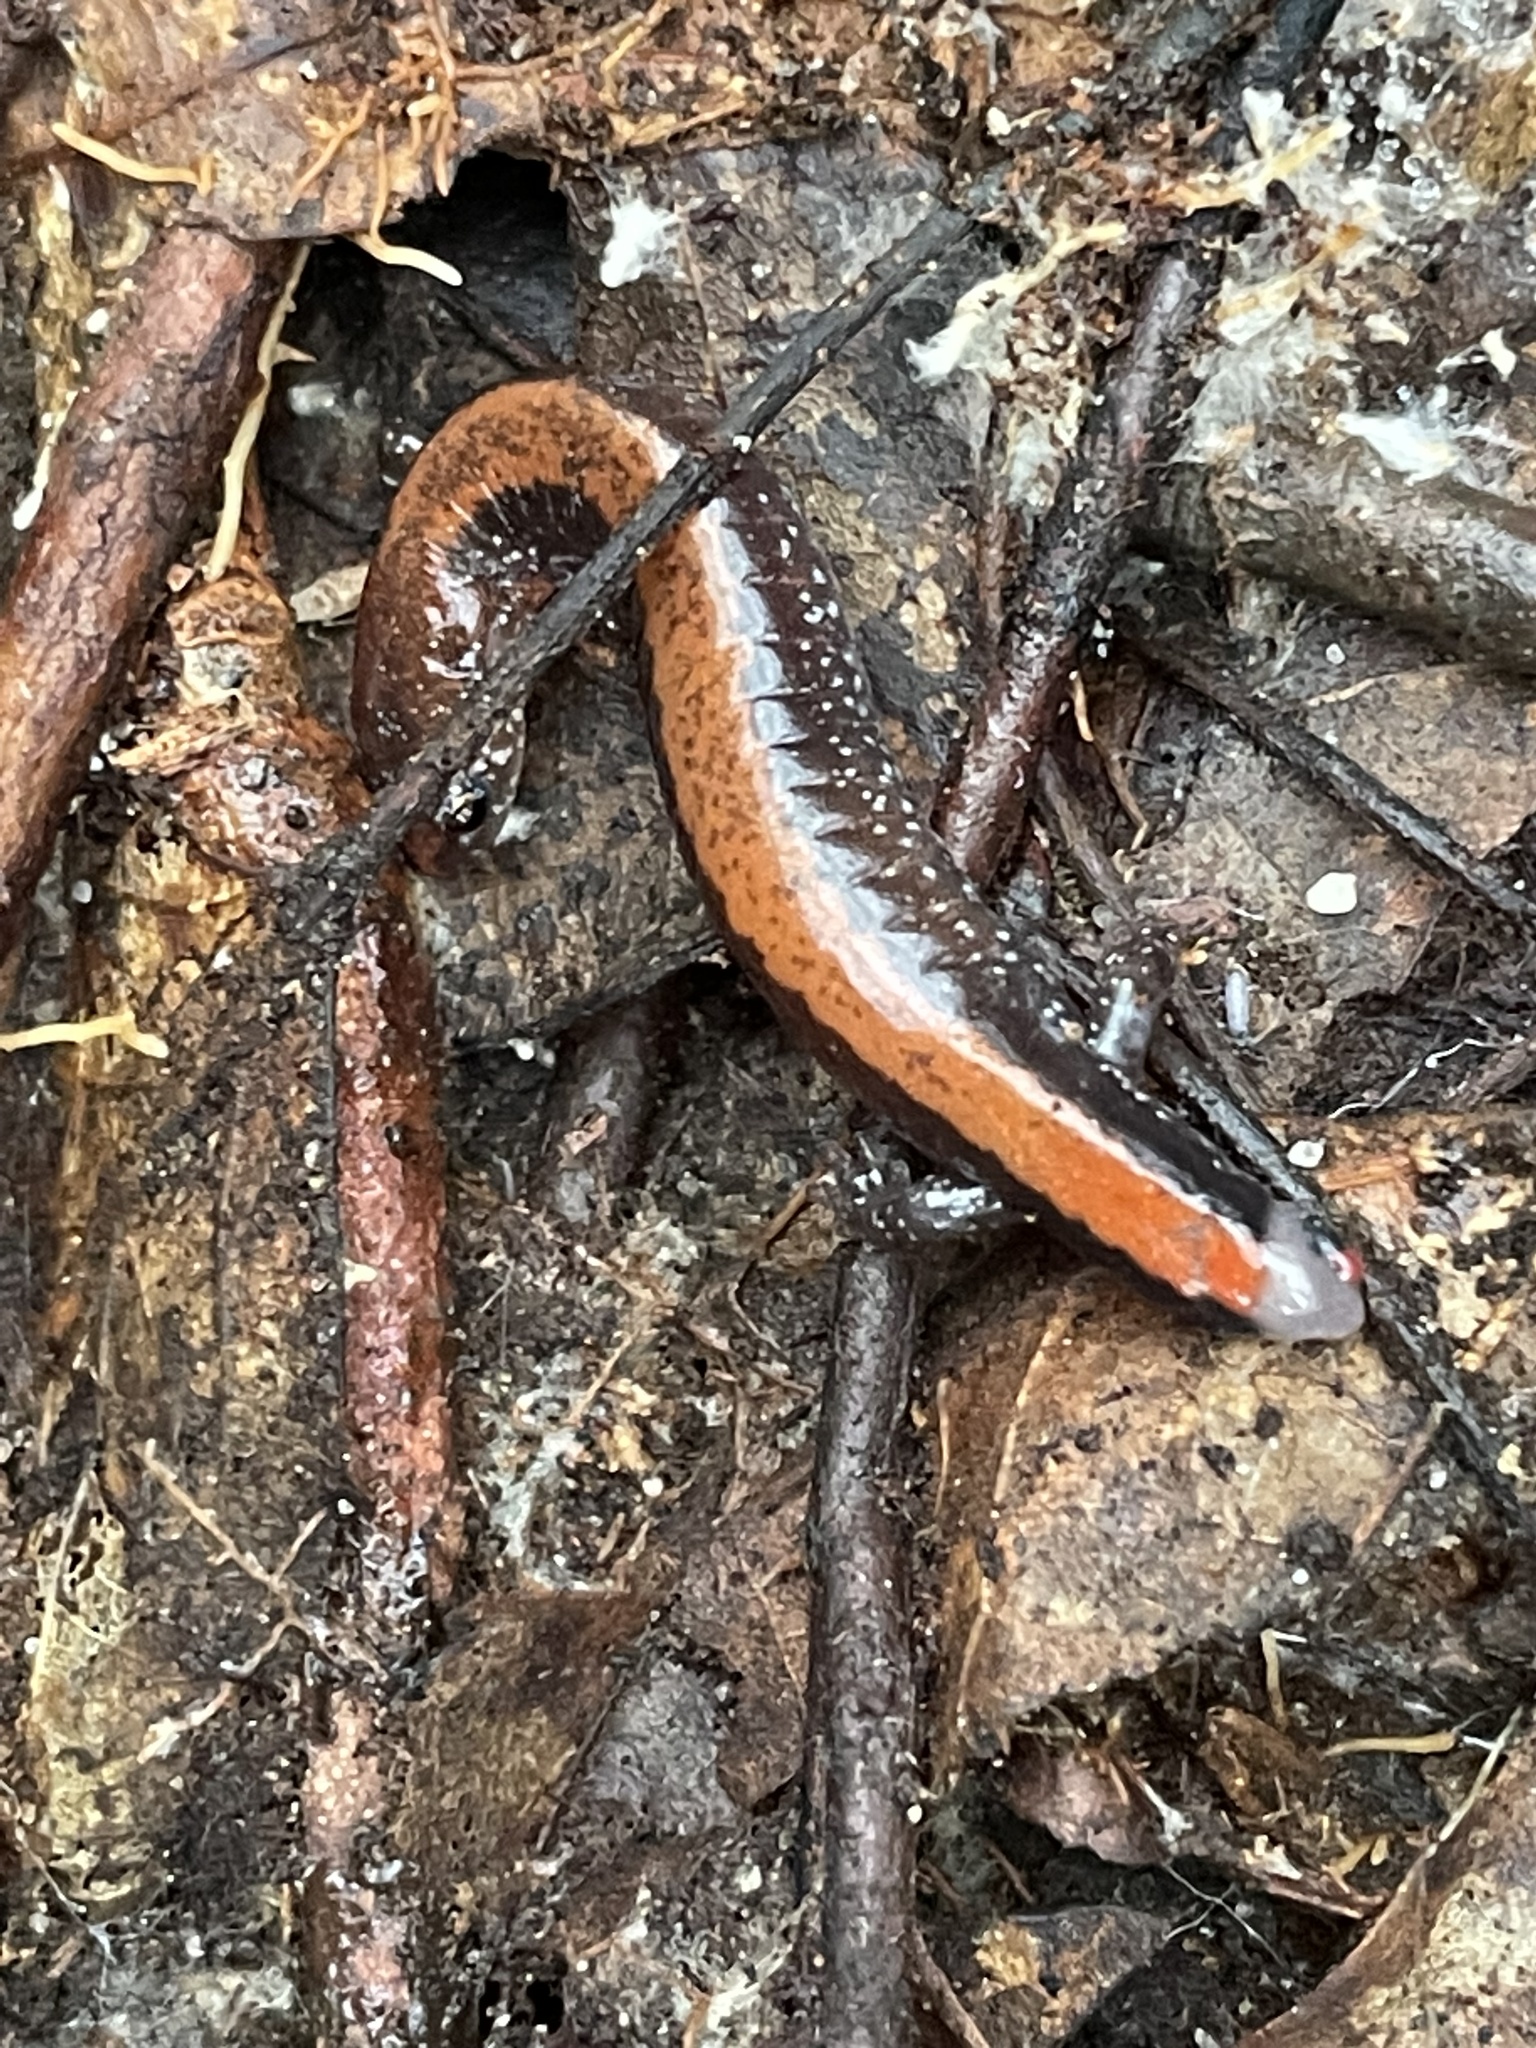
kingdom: Animalia
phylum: Chordata
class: Amphibia
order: Caudata
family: Plethodontidae
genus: Plethodon
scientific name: Plethodon cinereus
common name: Redback salamander
